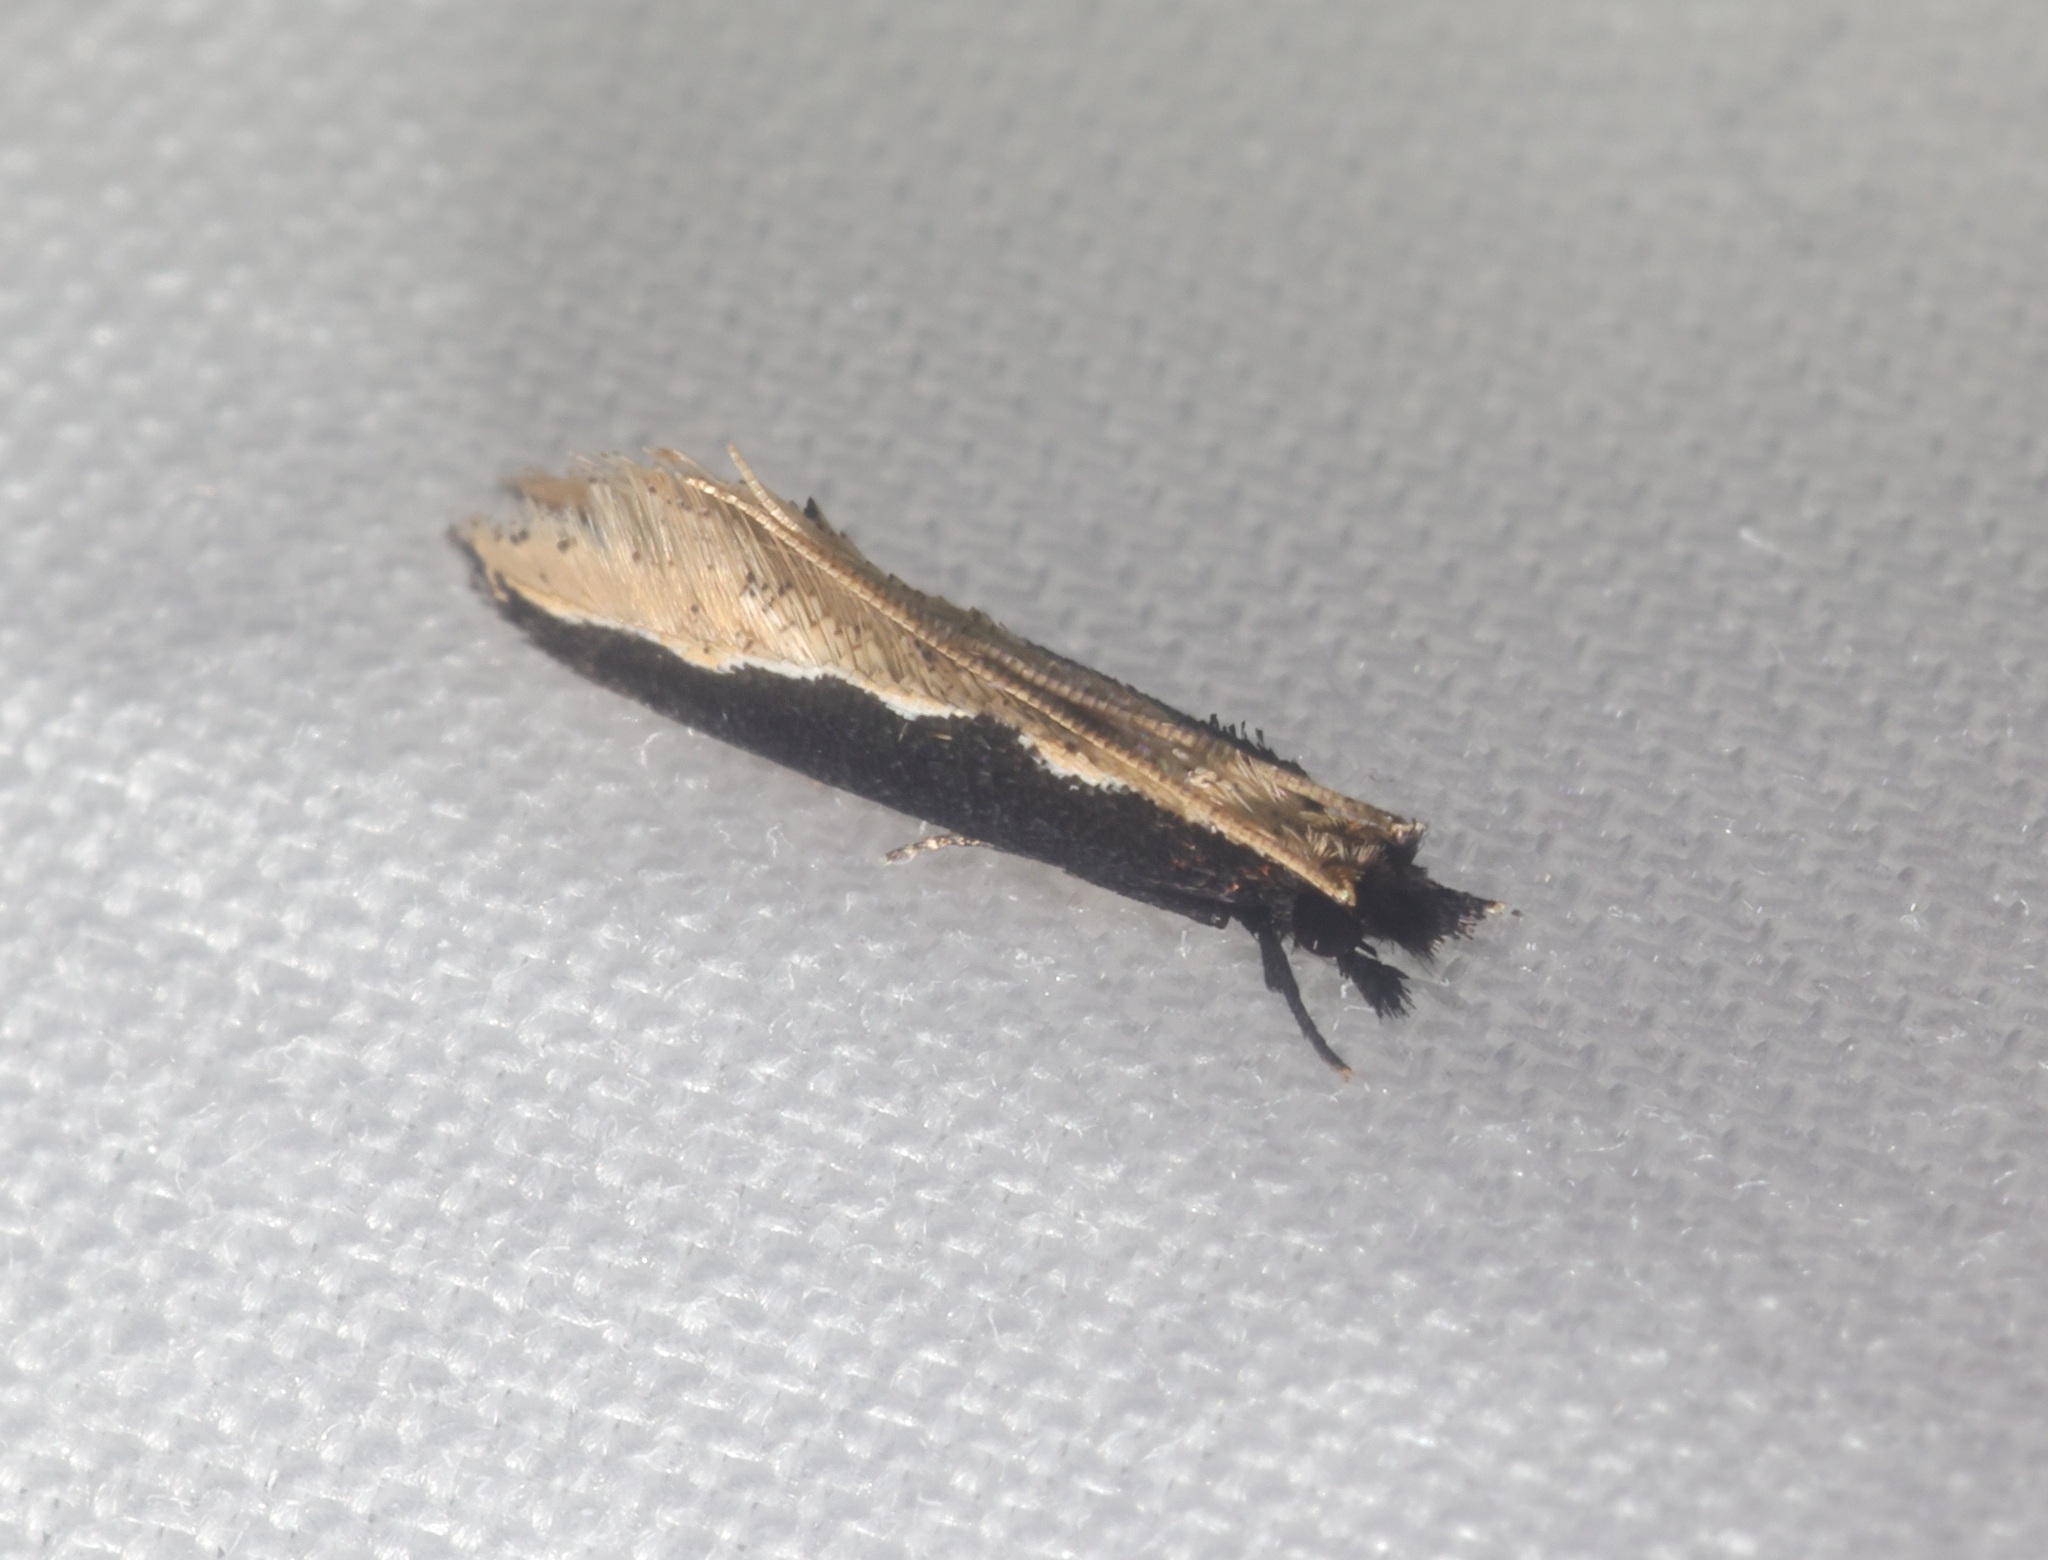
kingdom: Animalia
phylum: Arthropoda
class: Insecta
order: Lepidoptera
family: Tineidae
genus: Pyloetis
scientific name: Pyloetis mimosae
